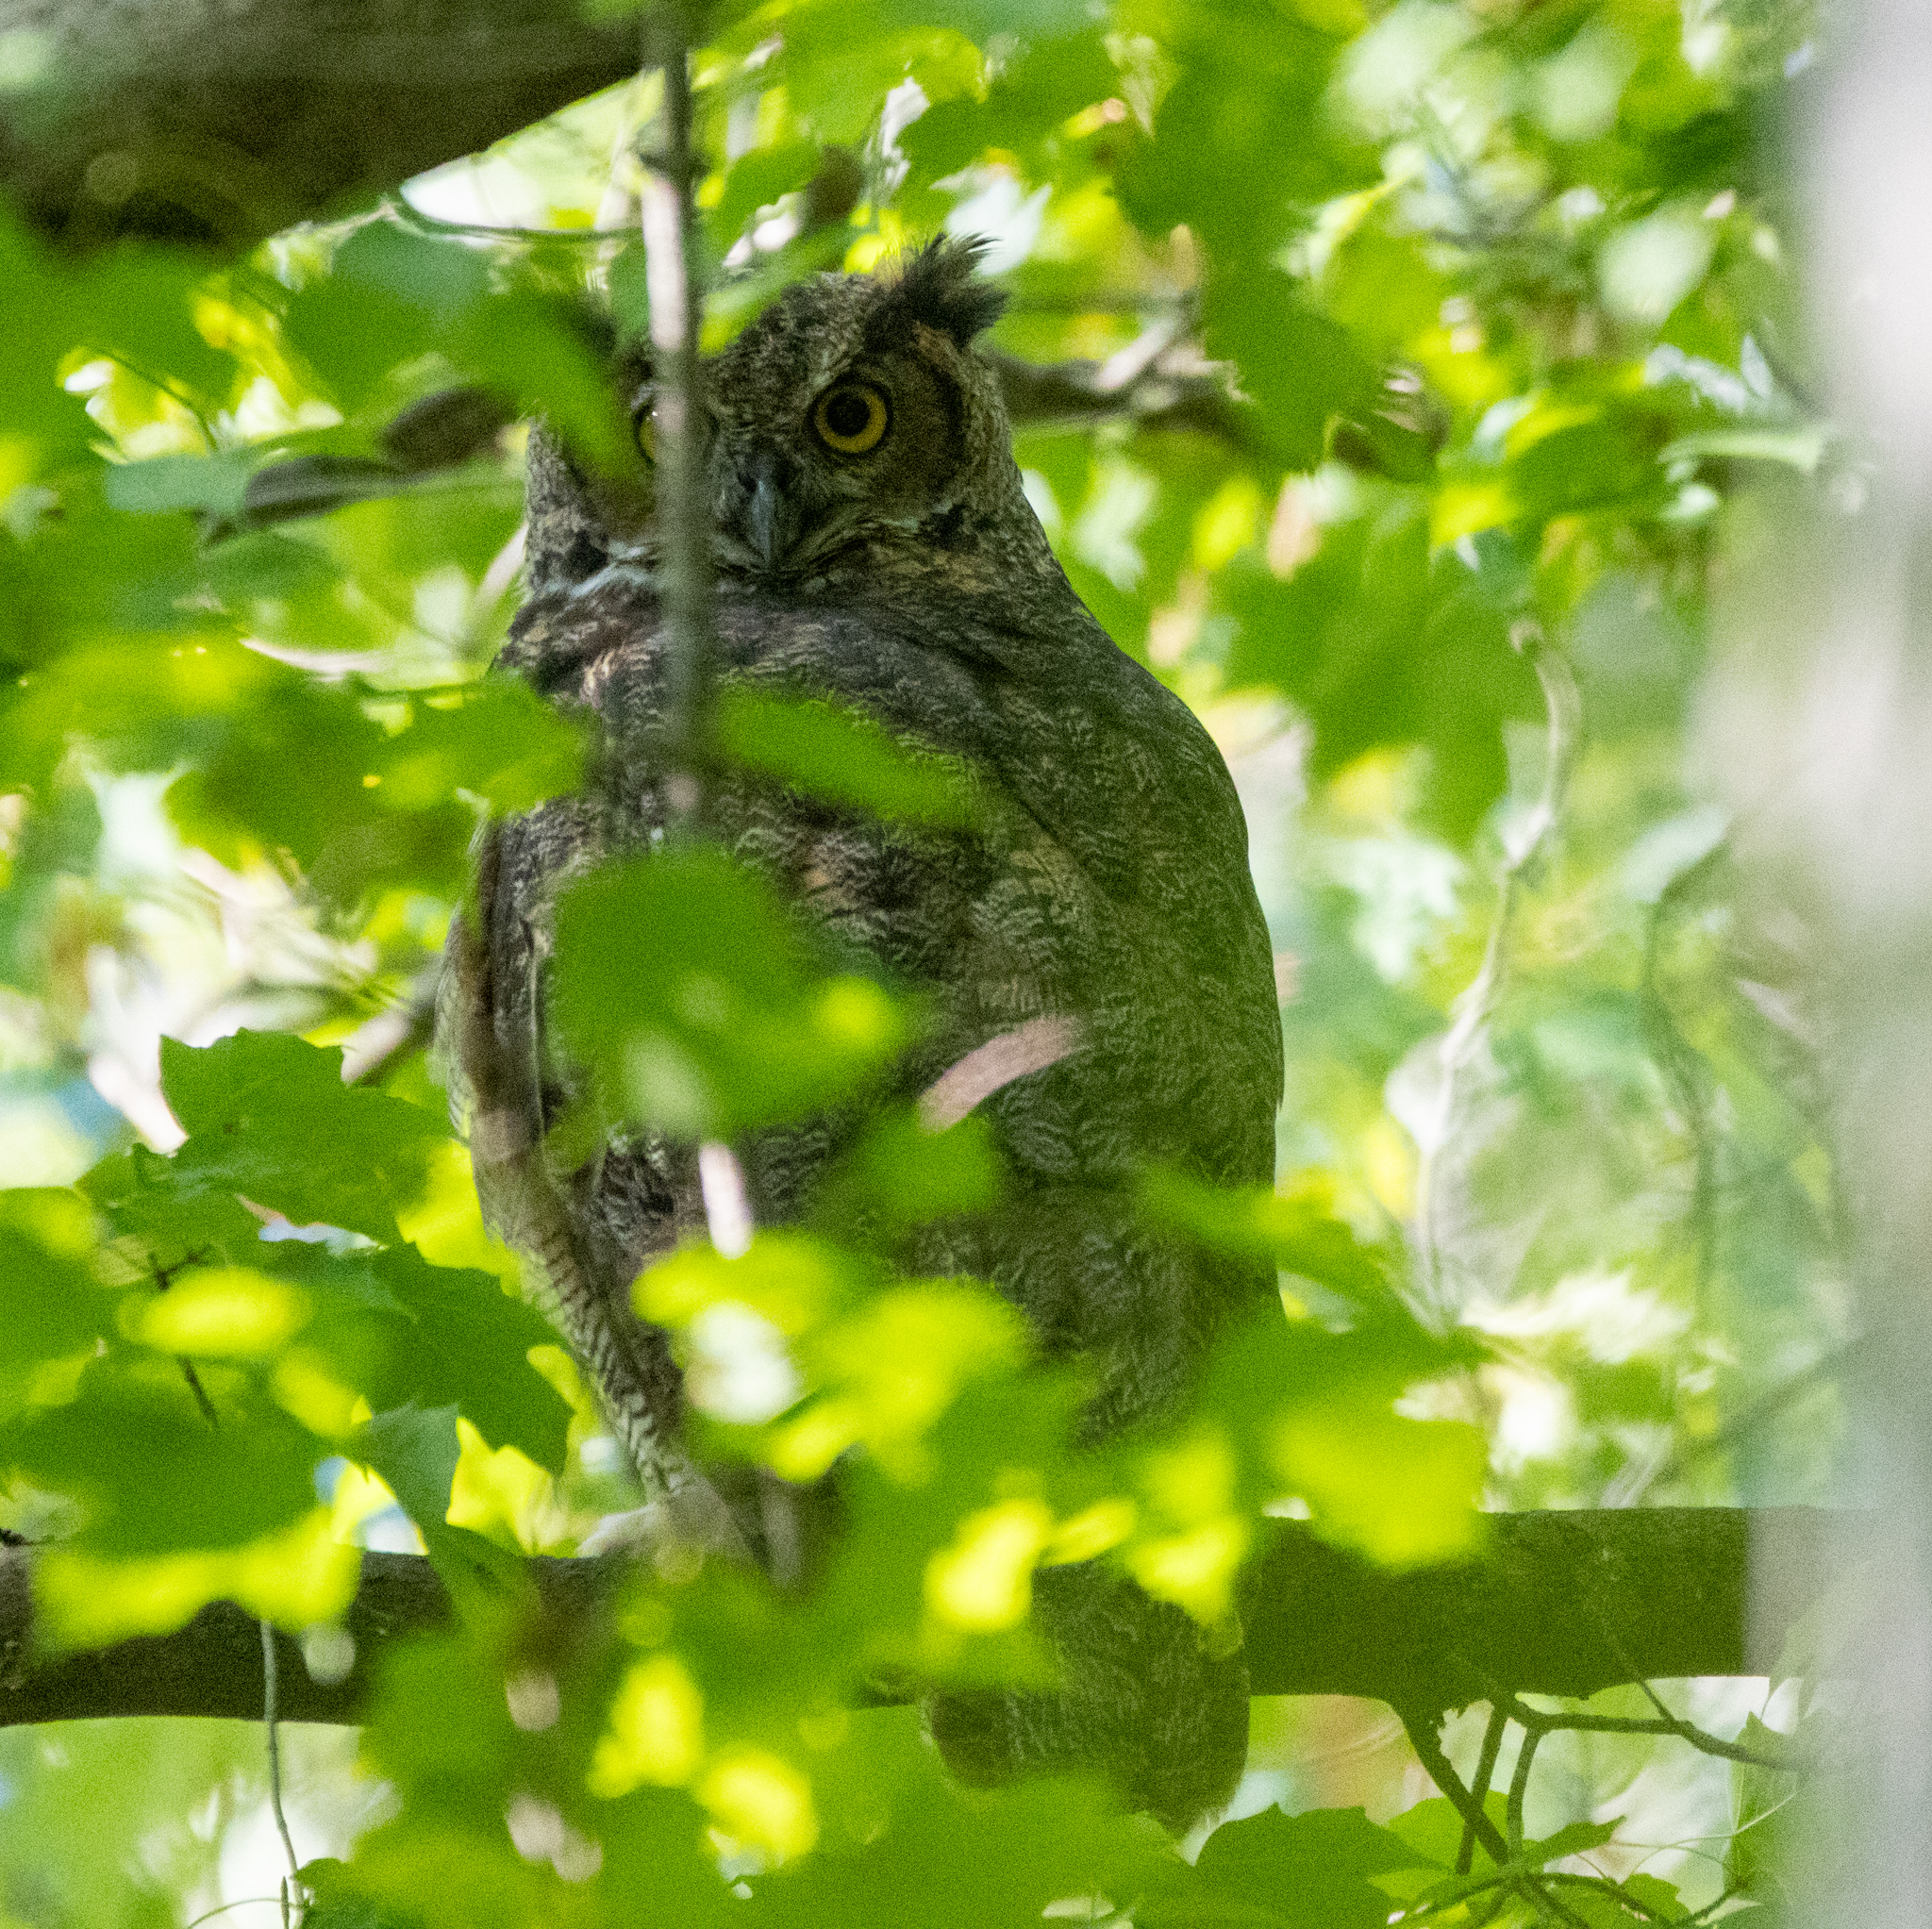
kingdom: Animalia
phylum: Chordata
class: Aves
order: Strigiformes
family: Strigidae
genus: Bubo
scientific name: Bubo virginianus
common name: Great horned owl
